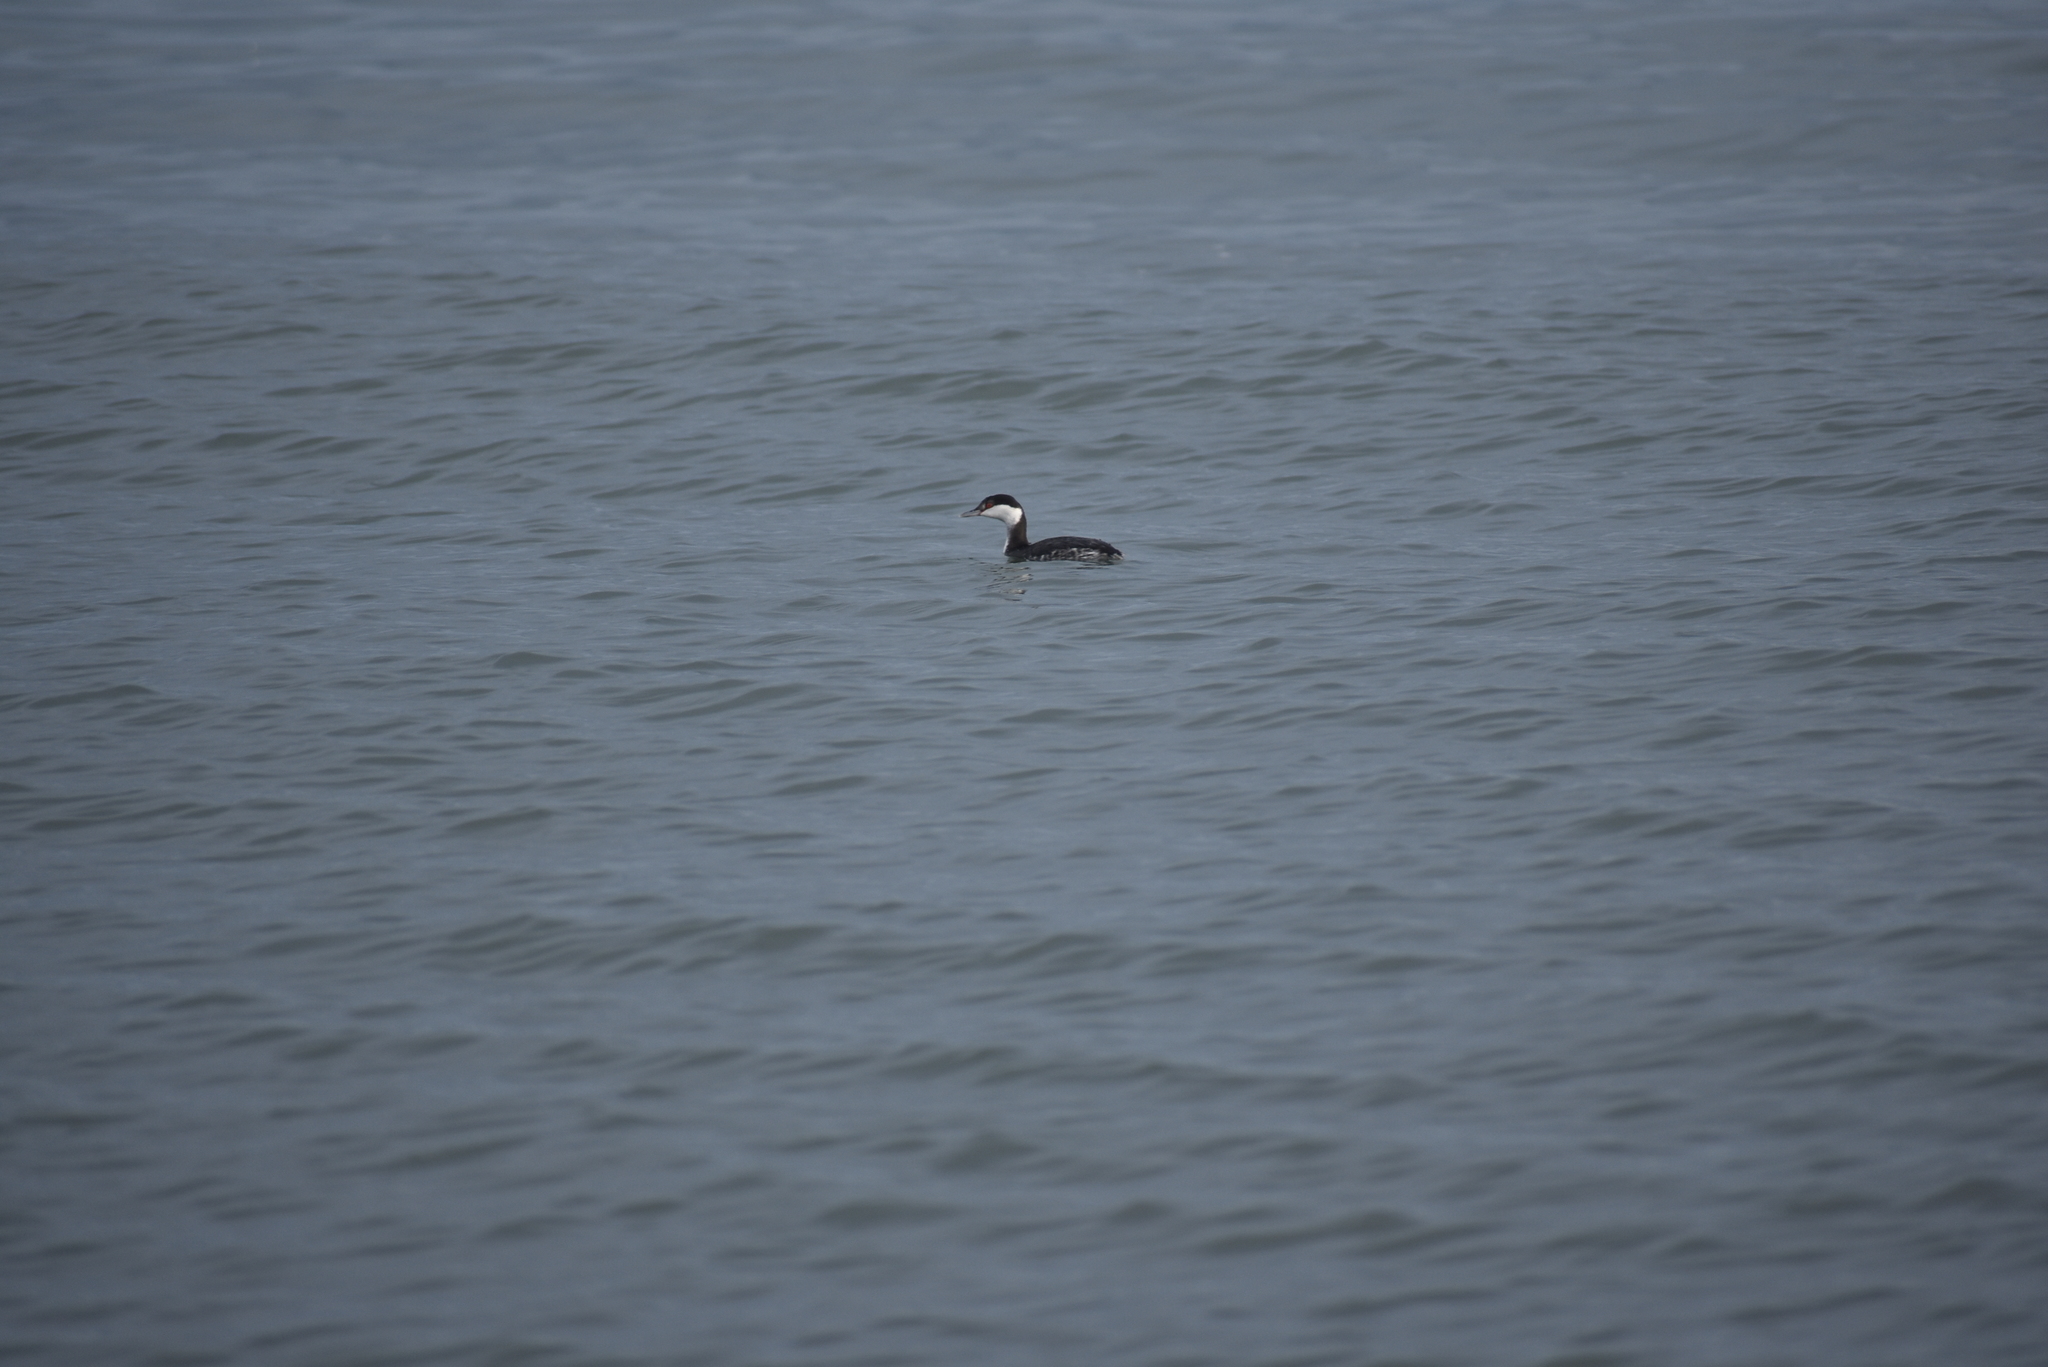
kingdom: Animalia
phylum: Chordata
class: Aves
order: Podicipediformes
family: Podicipedidae
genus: Podiceps
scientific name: Podiceps auritus
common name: Horned grebe
